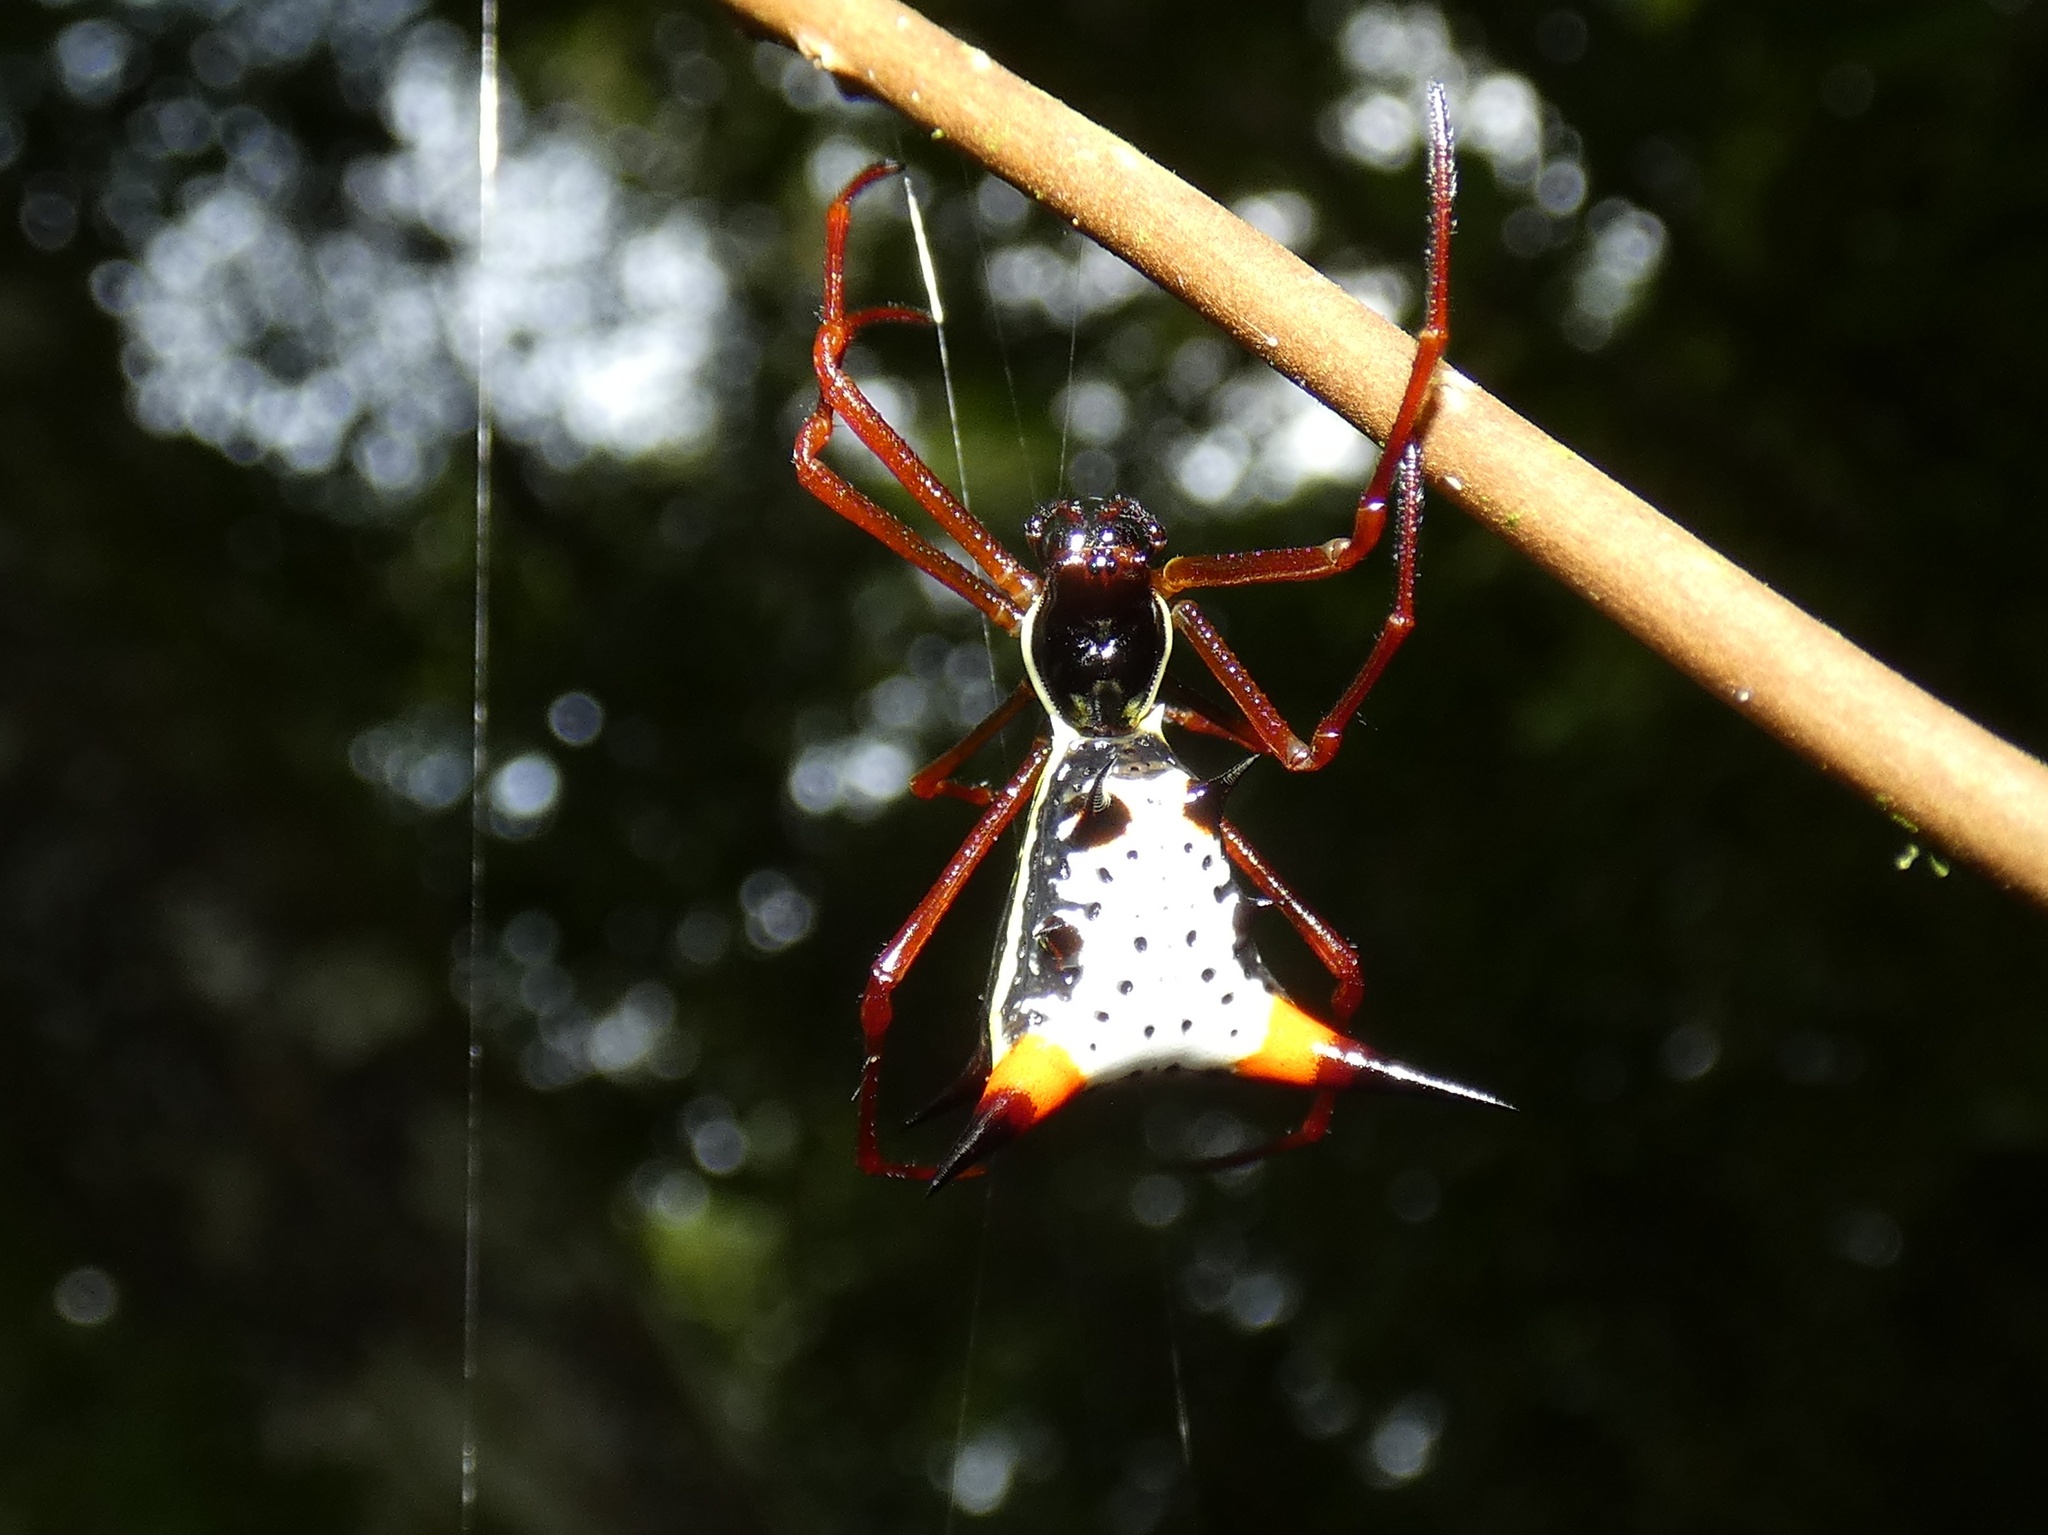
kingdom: Animalia
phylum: Arthropoda
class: Arachnida
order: Araneae
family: Araneidae
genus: Micrathena
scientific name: Micrathena schreibersi
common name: Orb weavers
